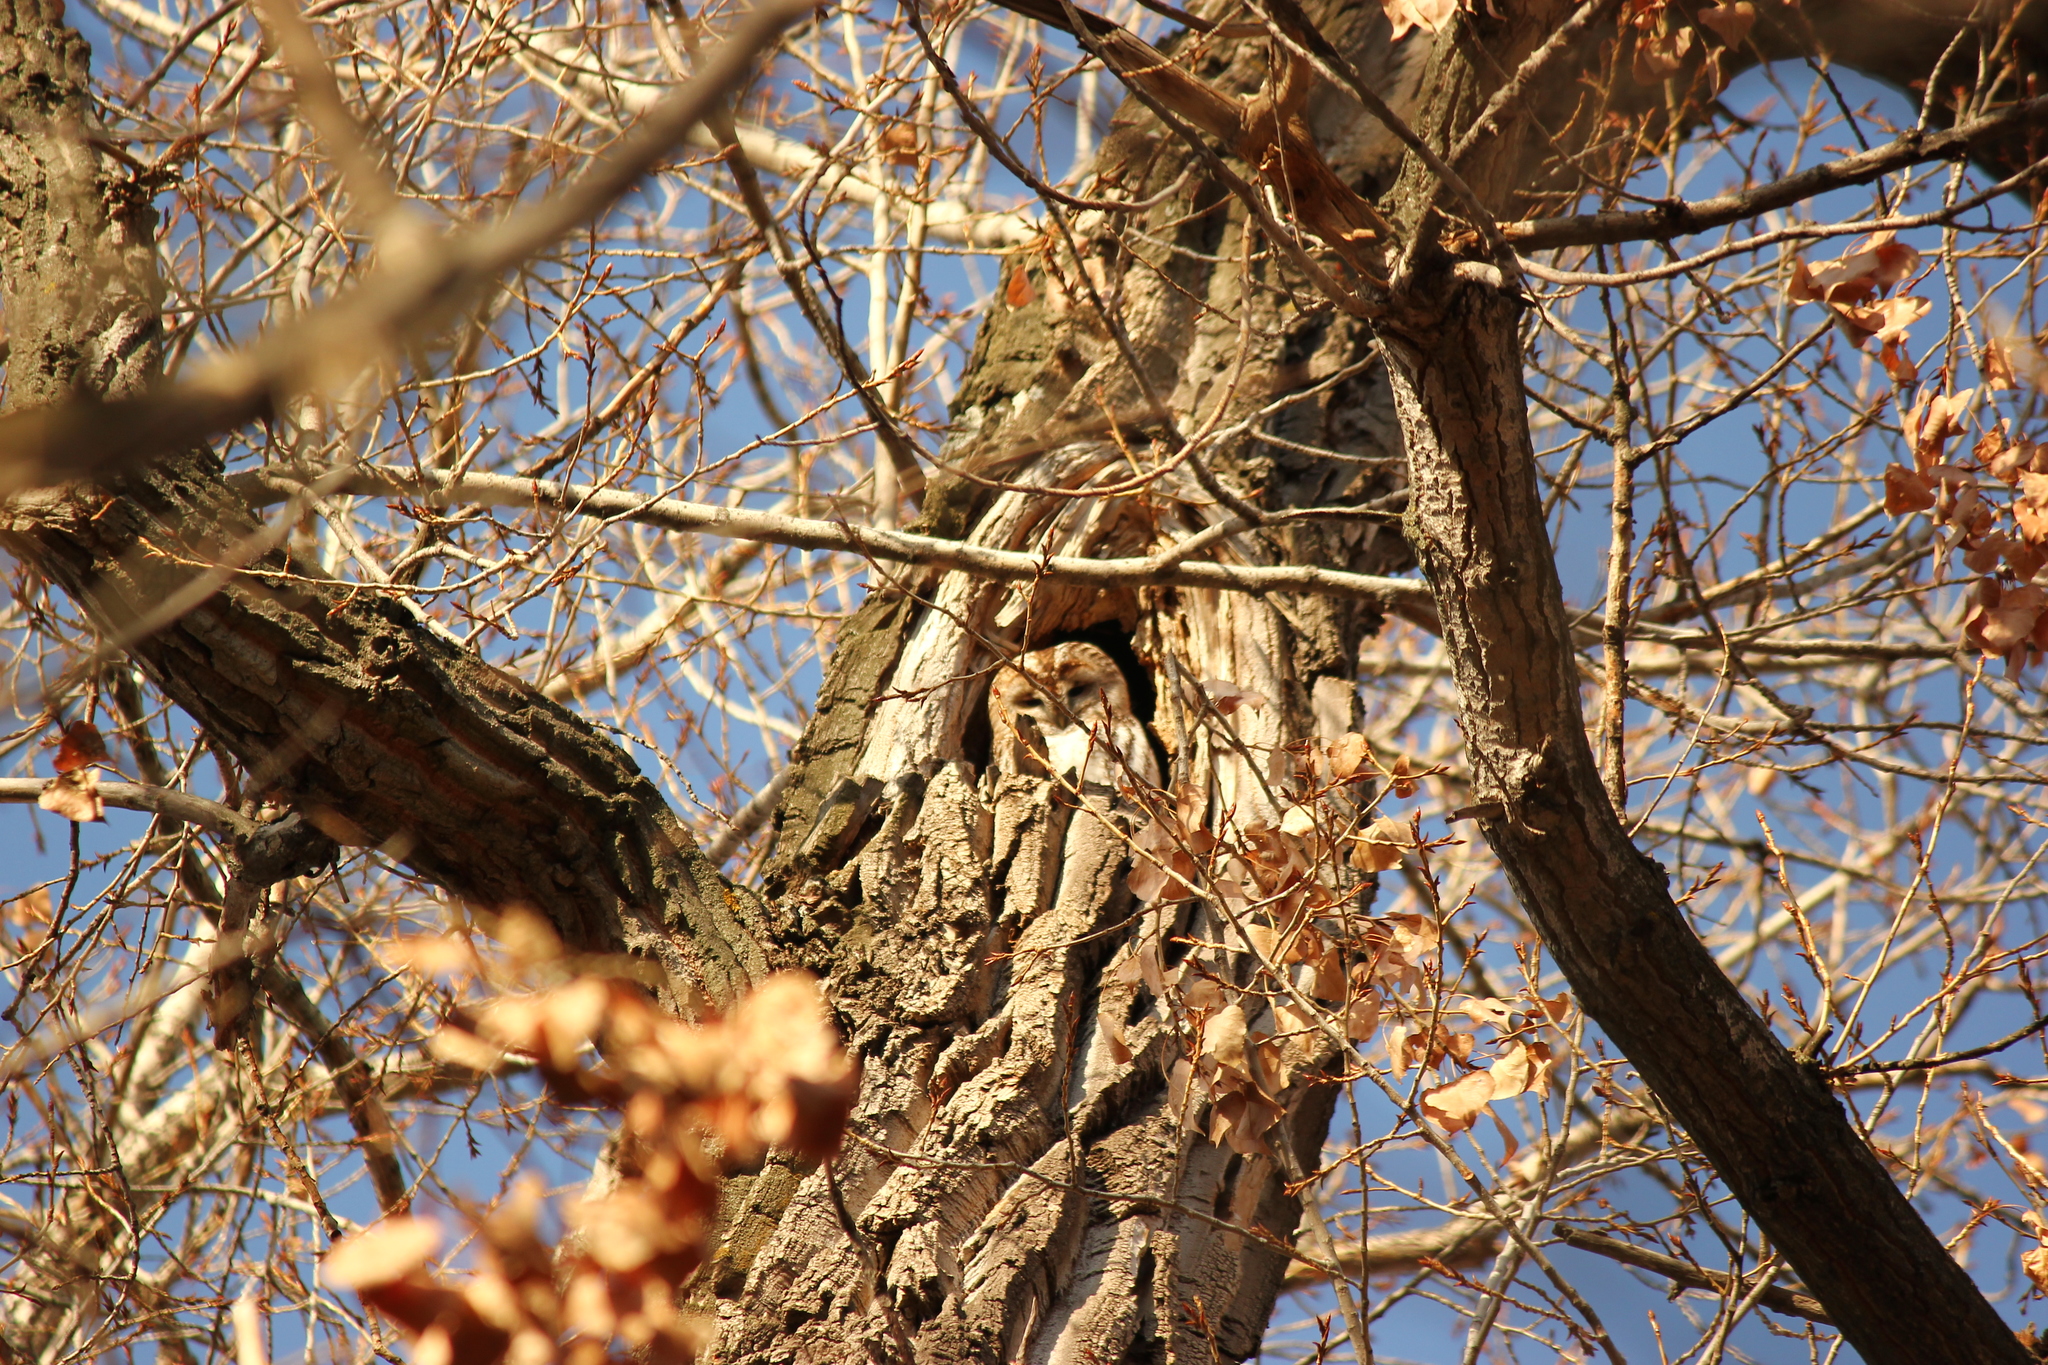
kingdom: Animalia
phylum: Chordata
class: Aves
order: Strigiformes
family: Strigidae
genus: Strix
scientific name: Strix aluco
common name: Tawny owl
